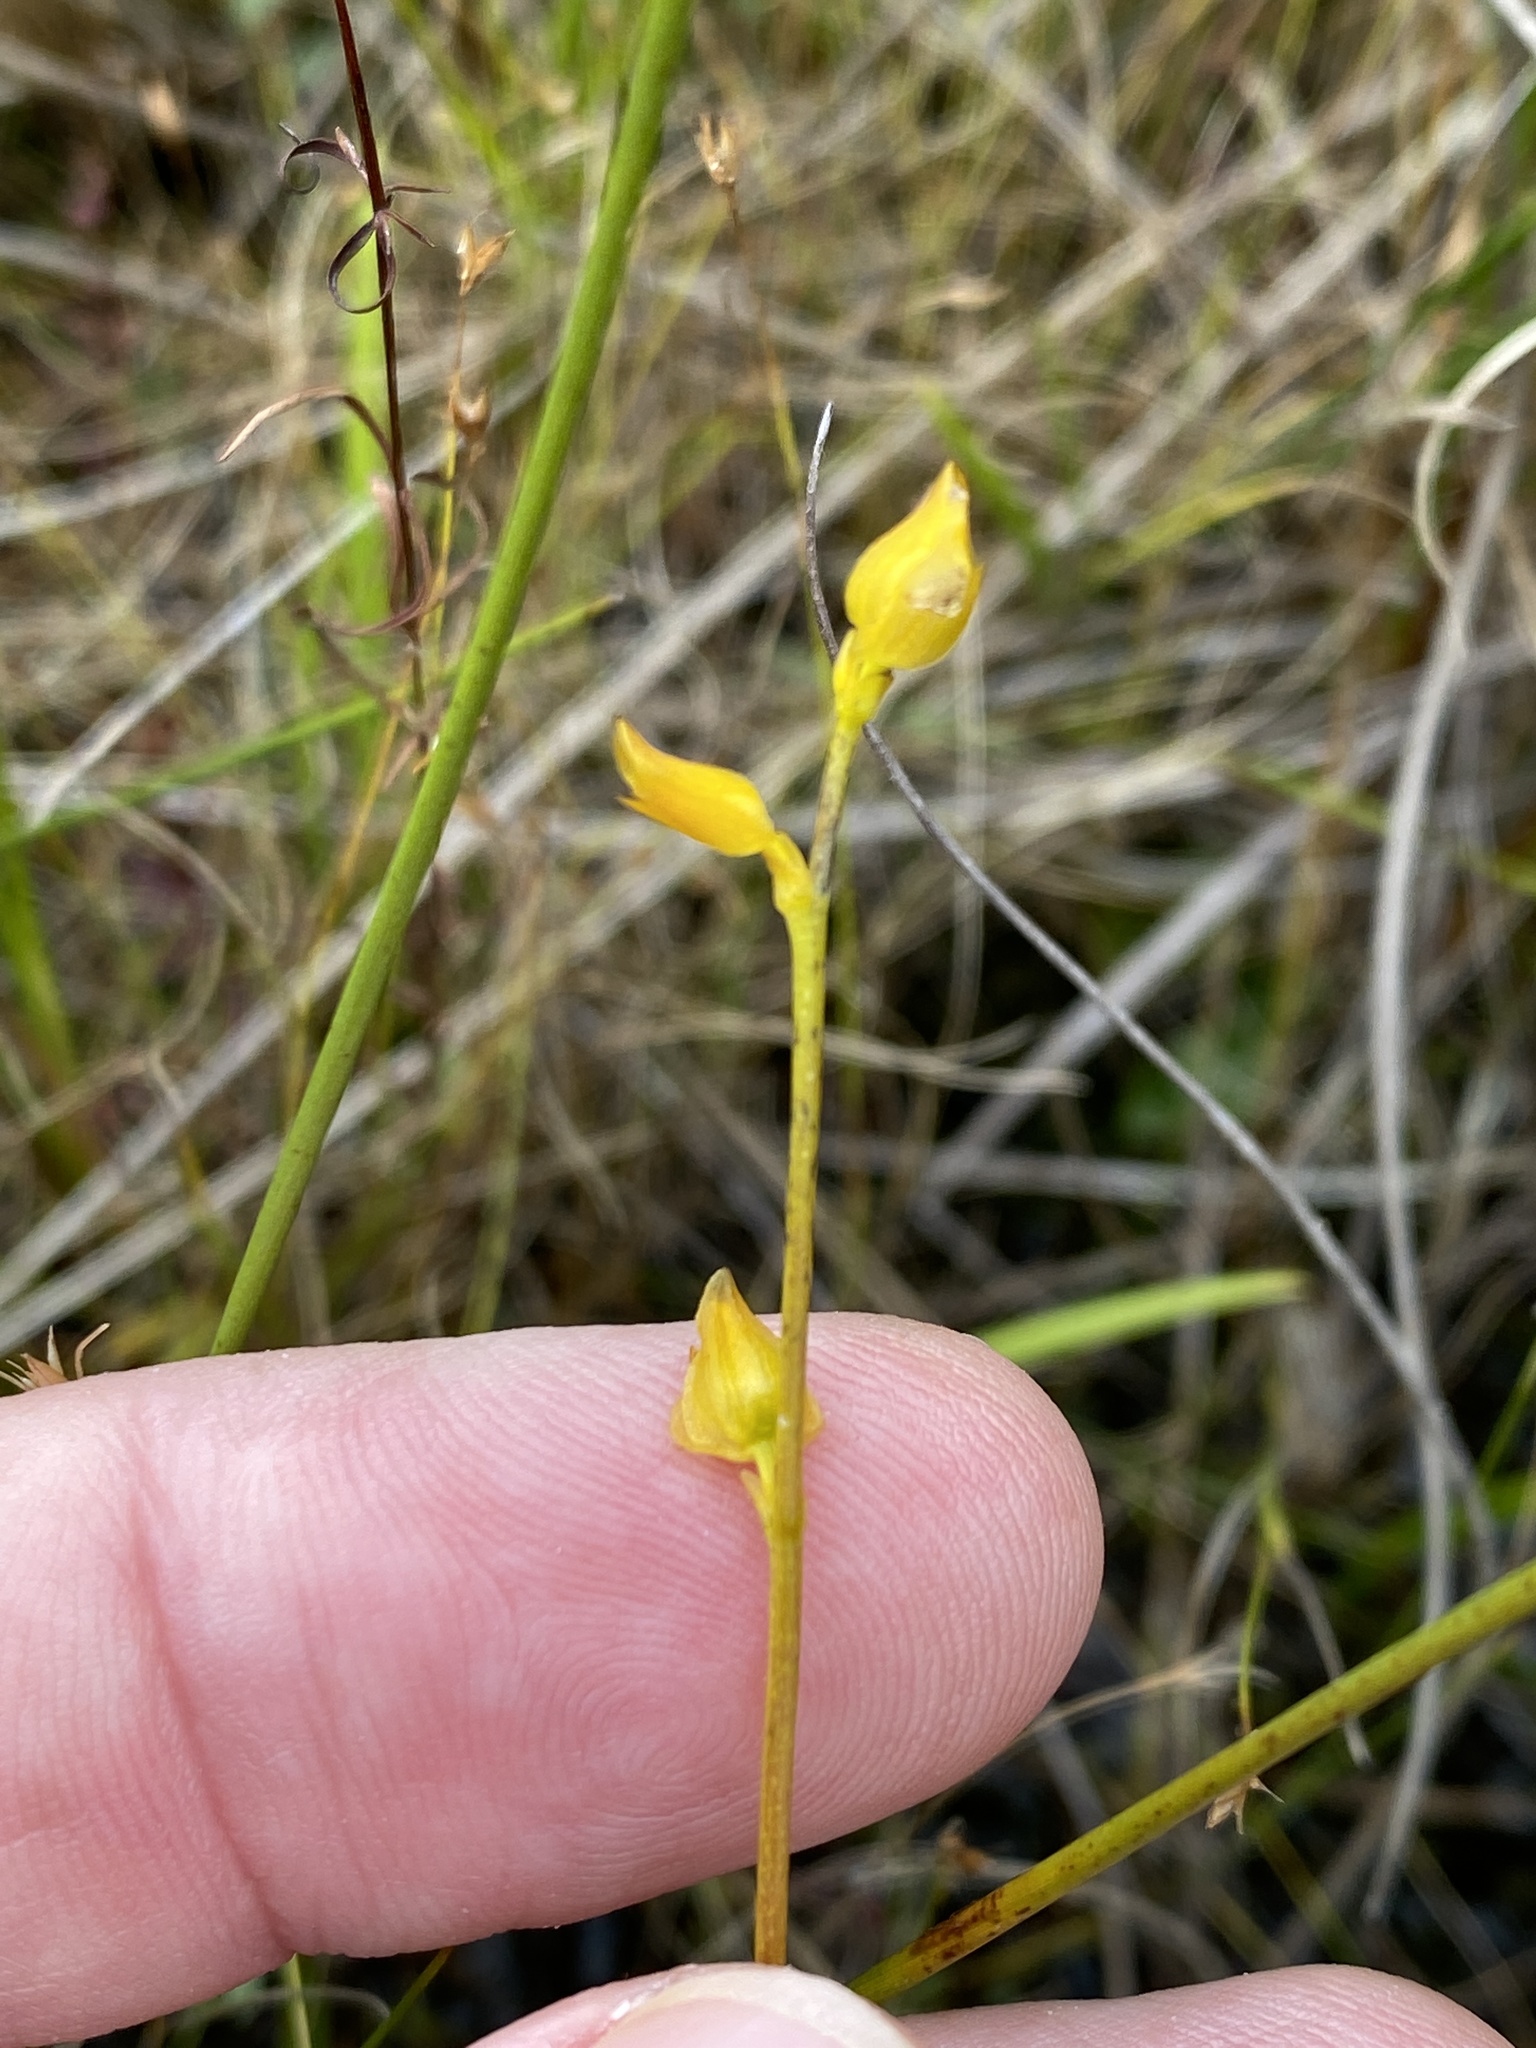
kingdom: Plantae
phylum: Tracheophyta
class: Magnoliopsida
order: Lamiales
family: Lentibulariaceae
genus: Utricularia
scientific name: Utricularia cornuta
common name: Horned bladderwort
